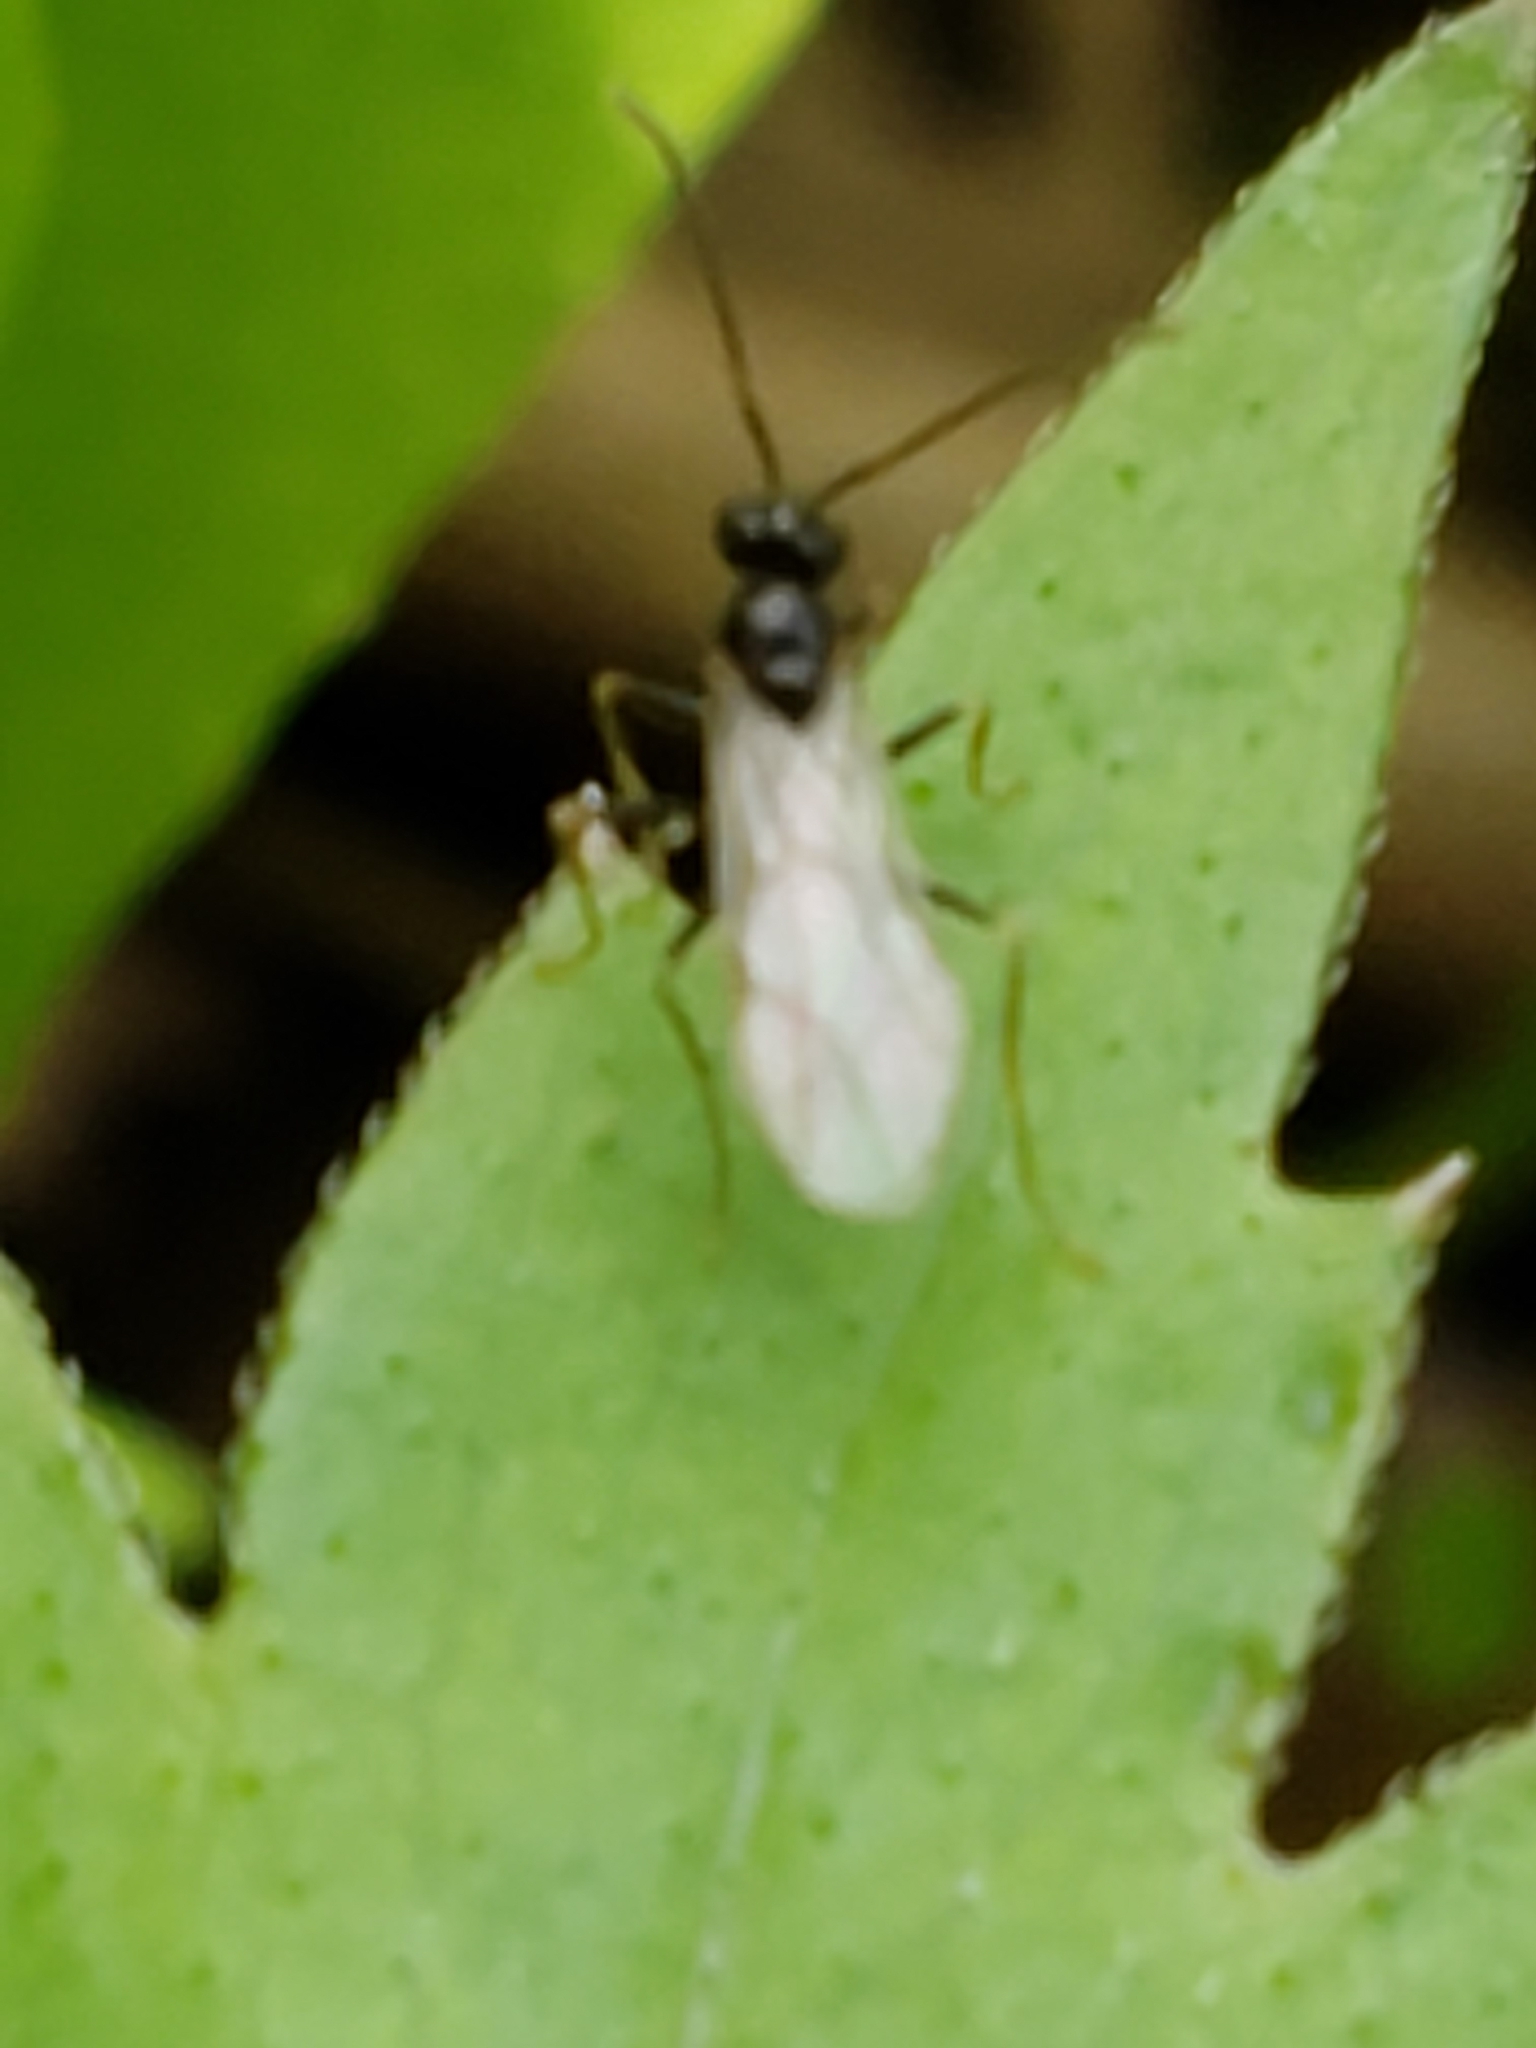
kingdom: Animalia
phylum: Arthropoda
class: Insecta
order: Hymenoptera
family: Formicidae
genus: Prenolepis
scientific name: Prenolepis imparis
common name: Small honey ant
